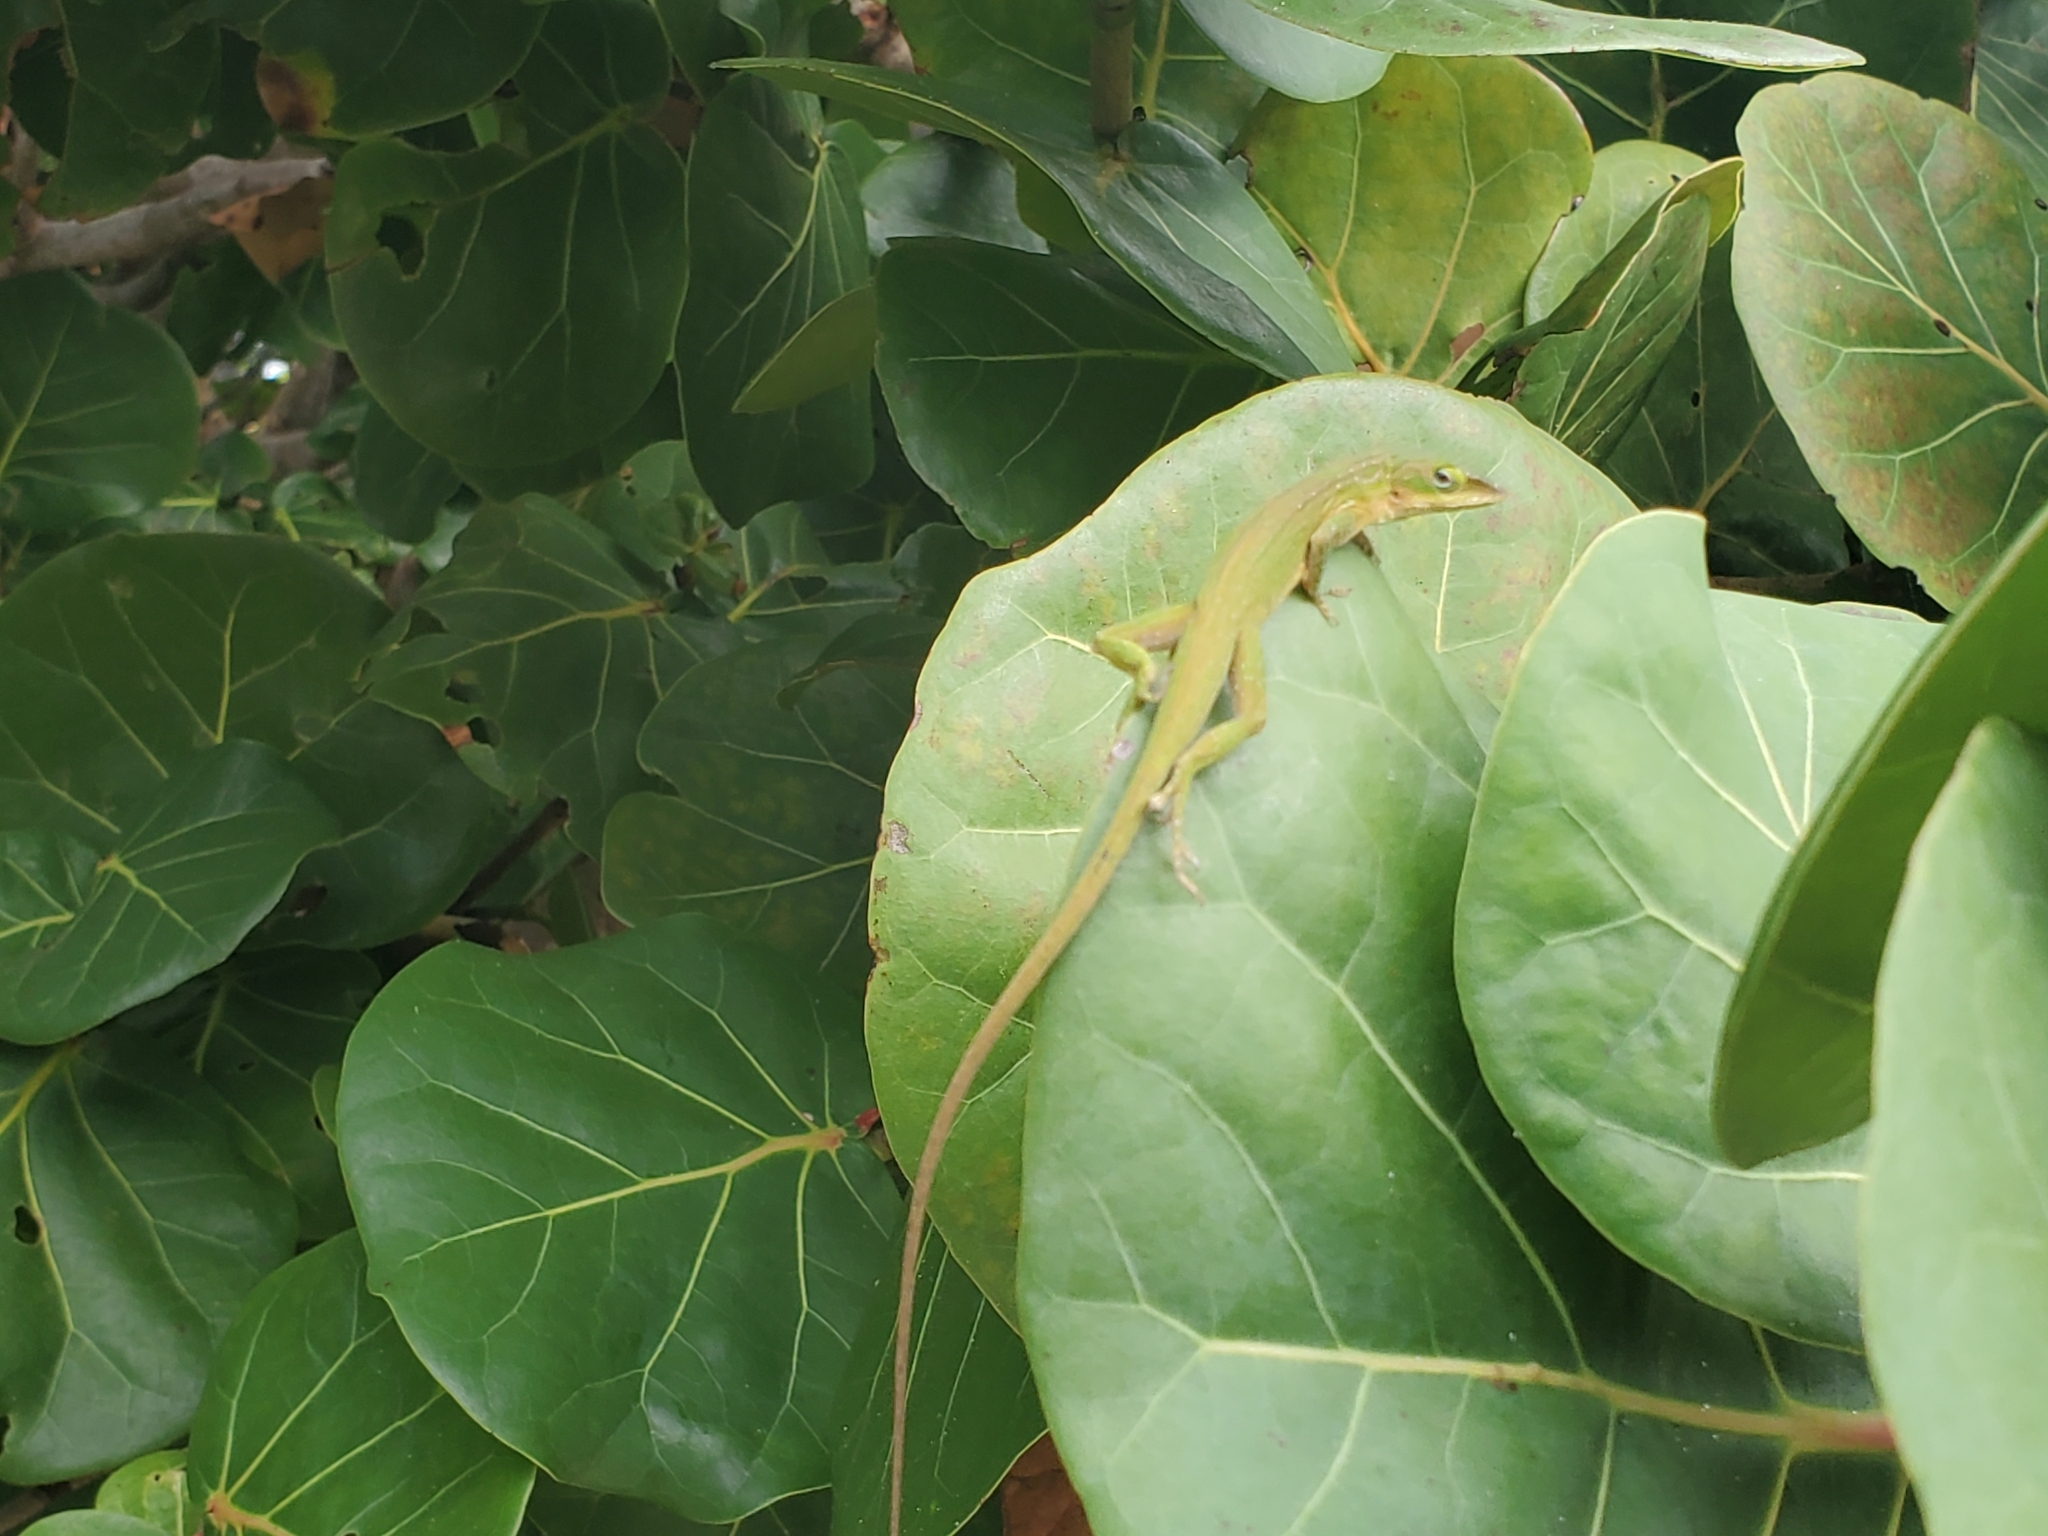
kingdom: Animalia
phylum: Chordata
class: Squamata
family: Dactyloidae
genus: Anolis
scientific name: Anolis carolinensis
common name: Green anole
